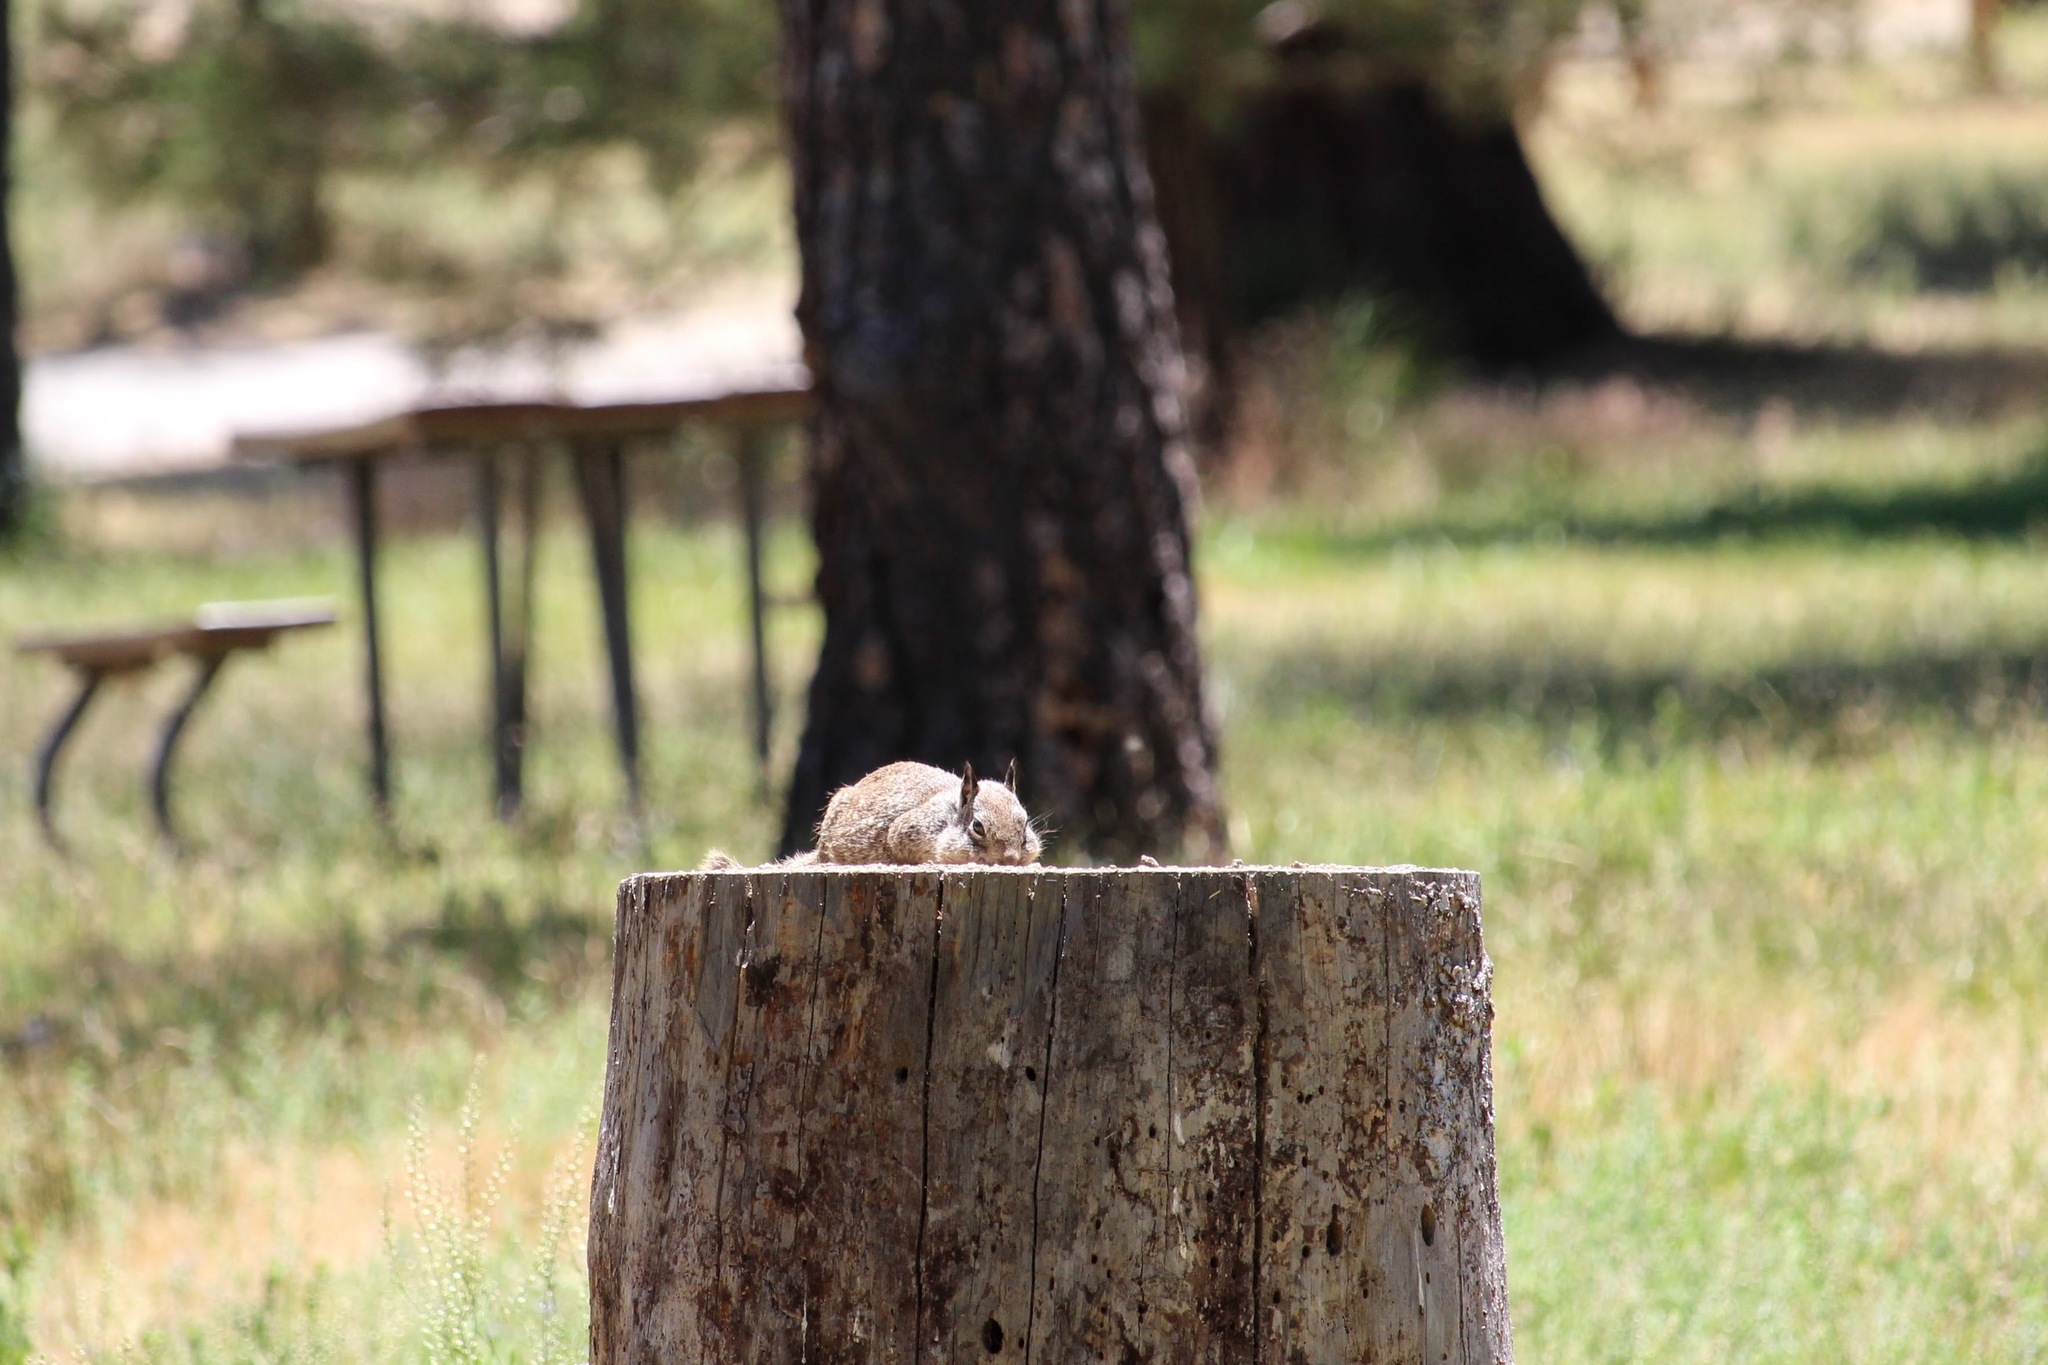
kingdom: Animalia
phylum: Chordata
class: Mammalia
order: Rodentia
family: Sciuridae
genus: Otospermophilus
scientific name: Otospermophilus beecheyi
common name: California ground squirrel
